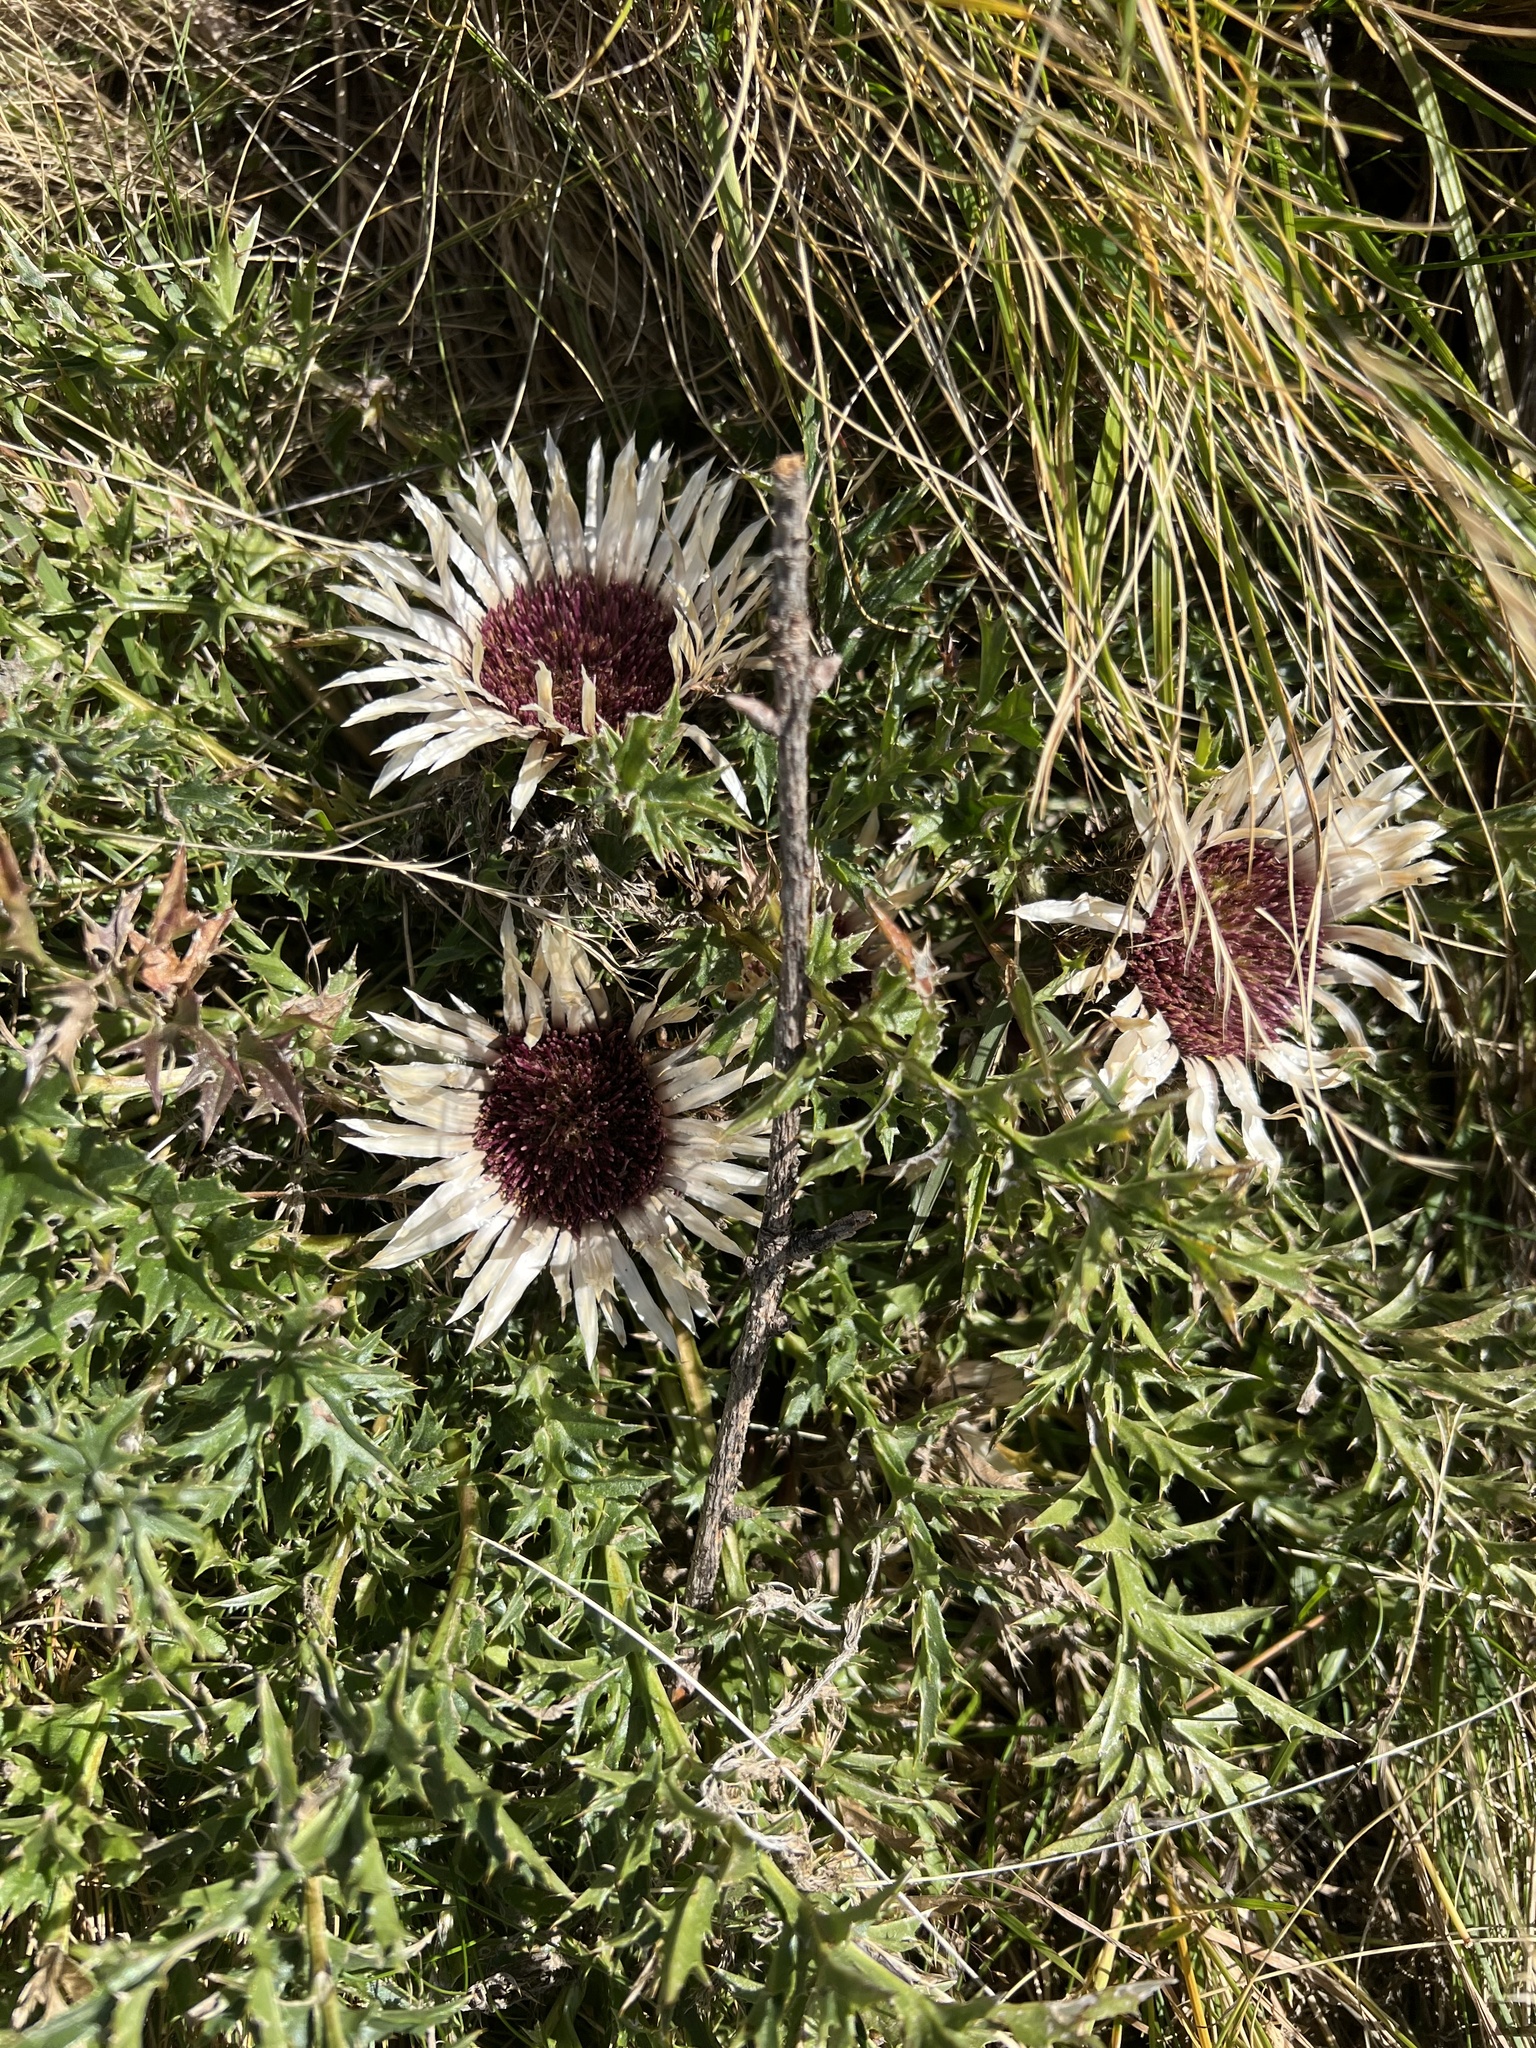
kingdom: Plantae
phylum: Tracheophyta
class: Magnoliopsida
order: Asterales
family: Asteraceae
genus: Carlina
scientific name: Carlina acaulis
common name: Stemless carline thistle
